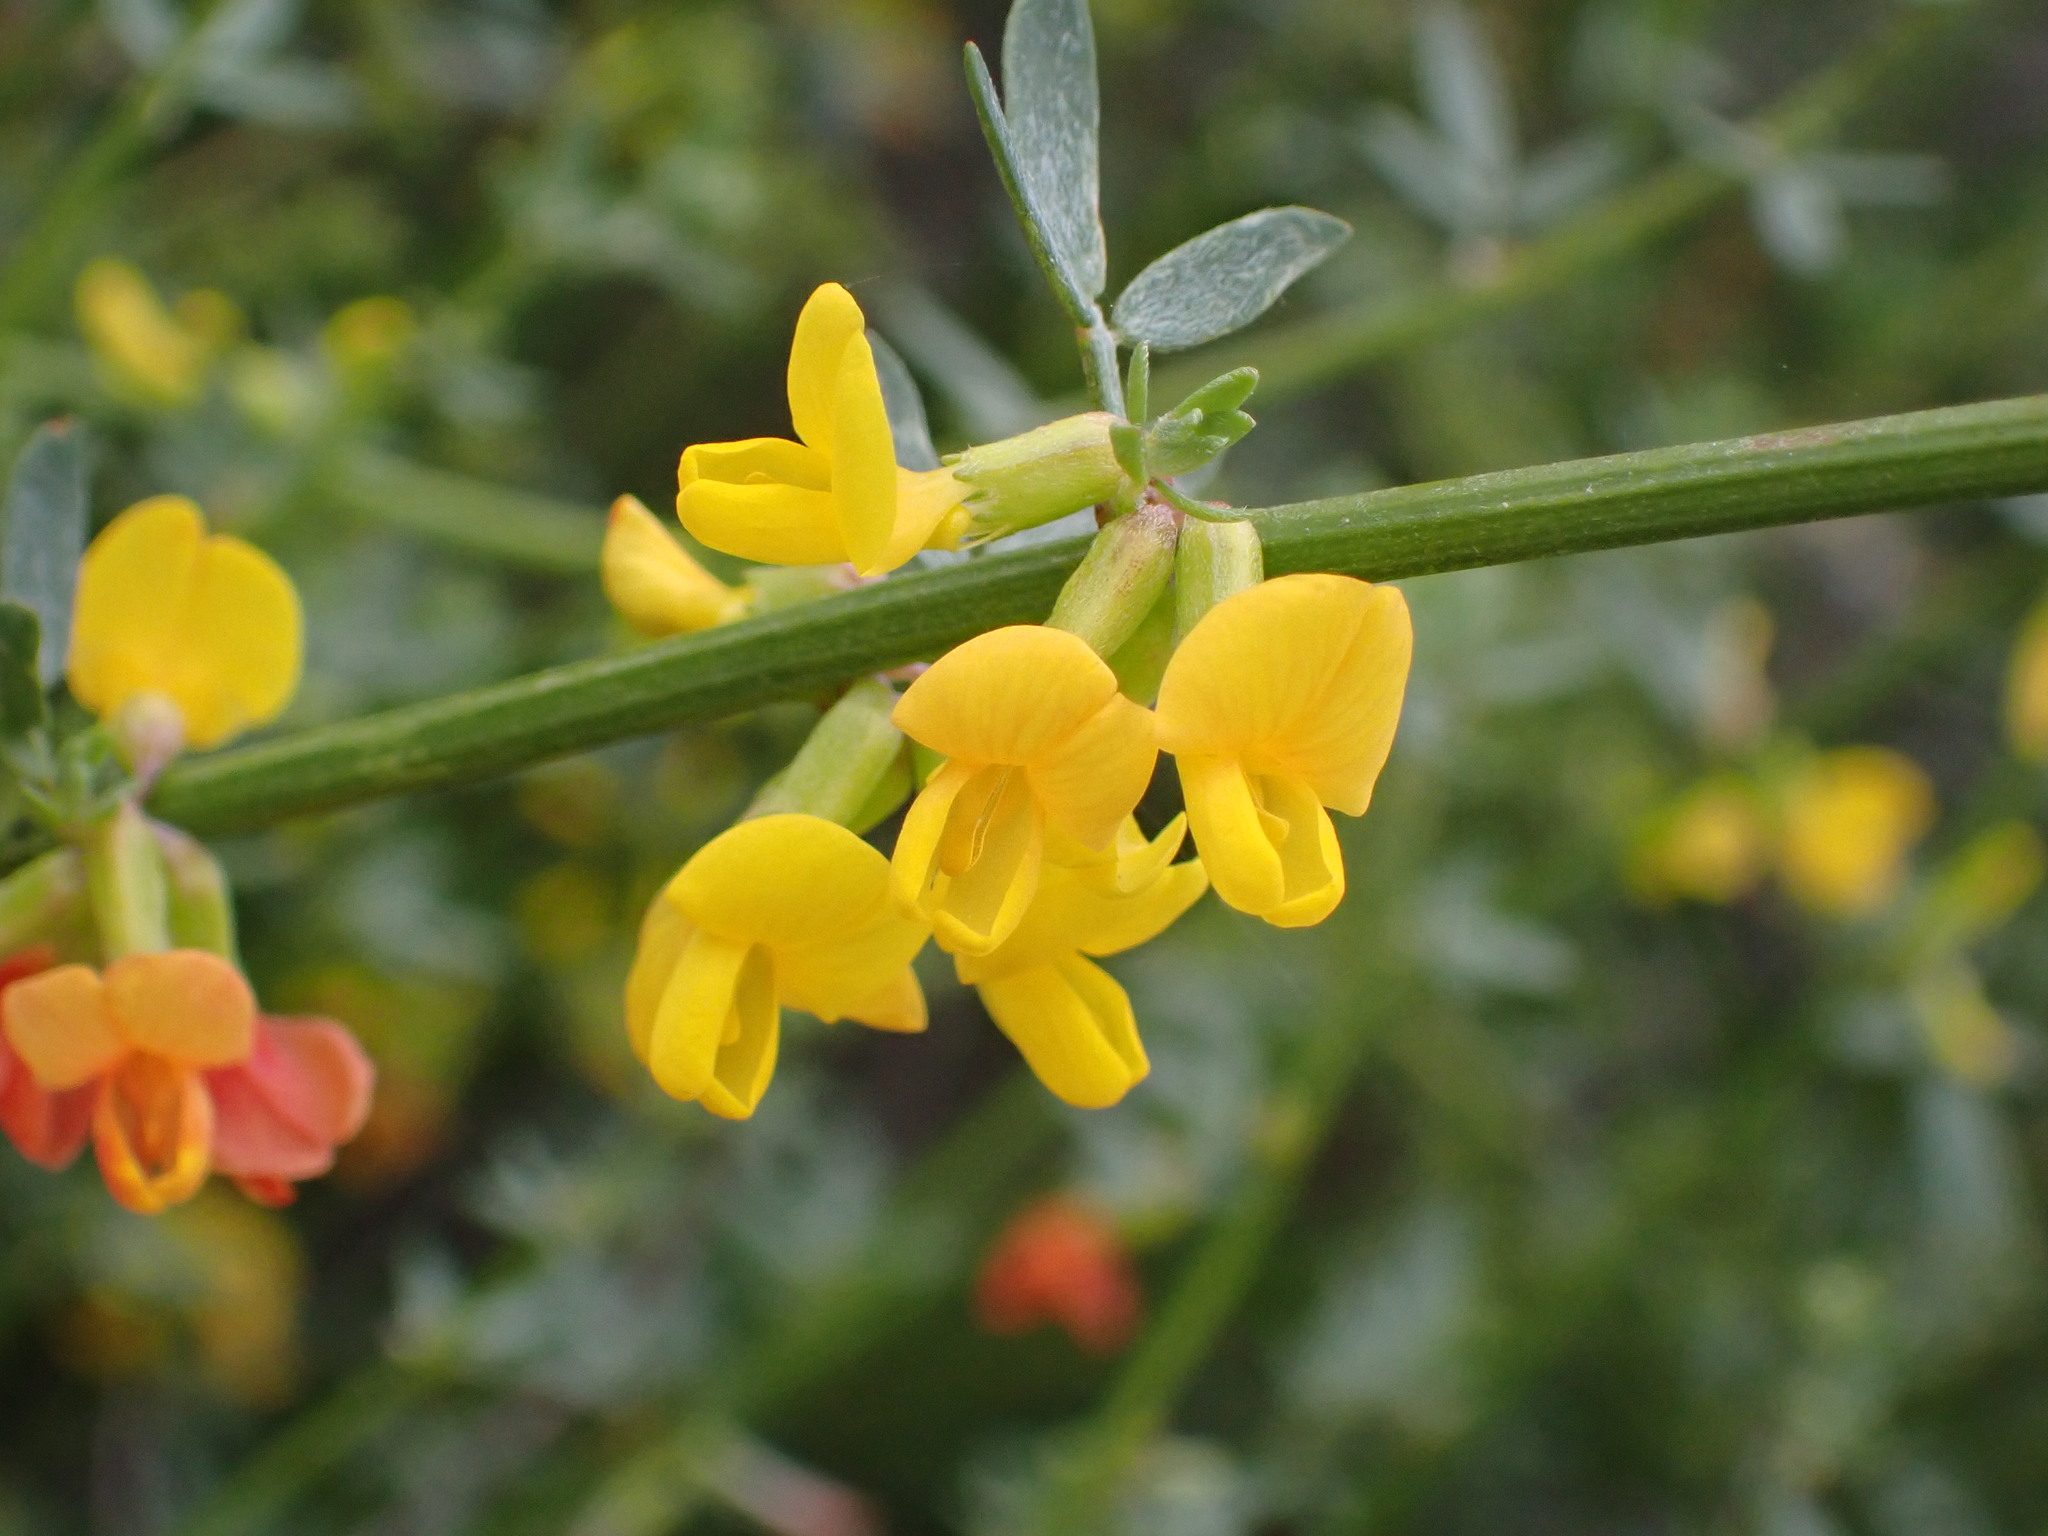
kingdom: Plantae
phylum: Tracheophyta
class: Magnoliopsida
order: Fabales
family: Fabaceae
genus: Acmispon
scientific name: Acmispon glaber
